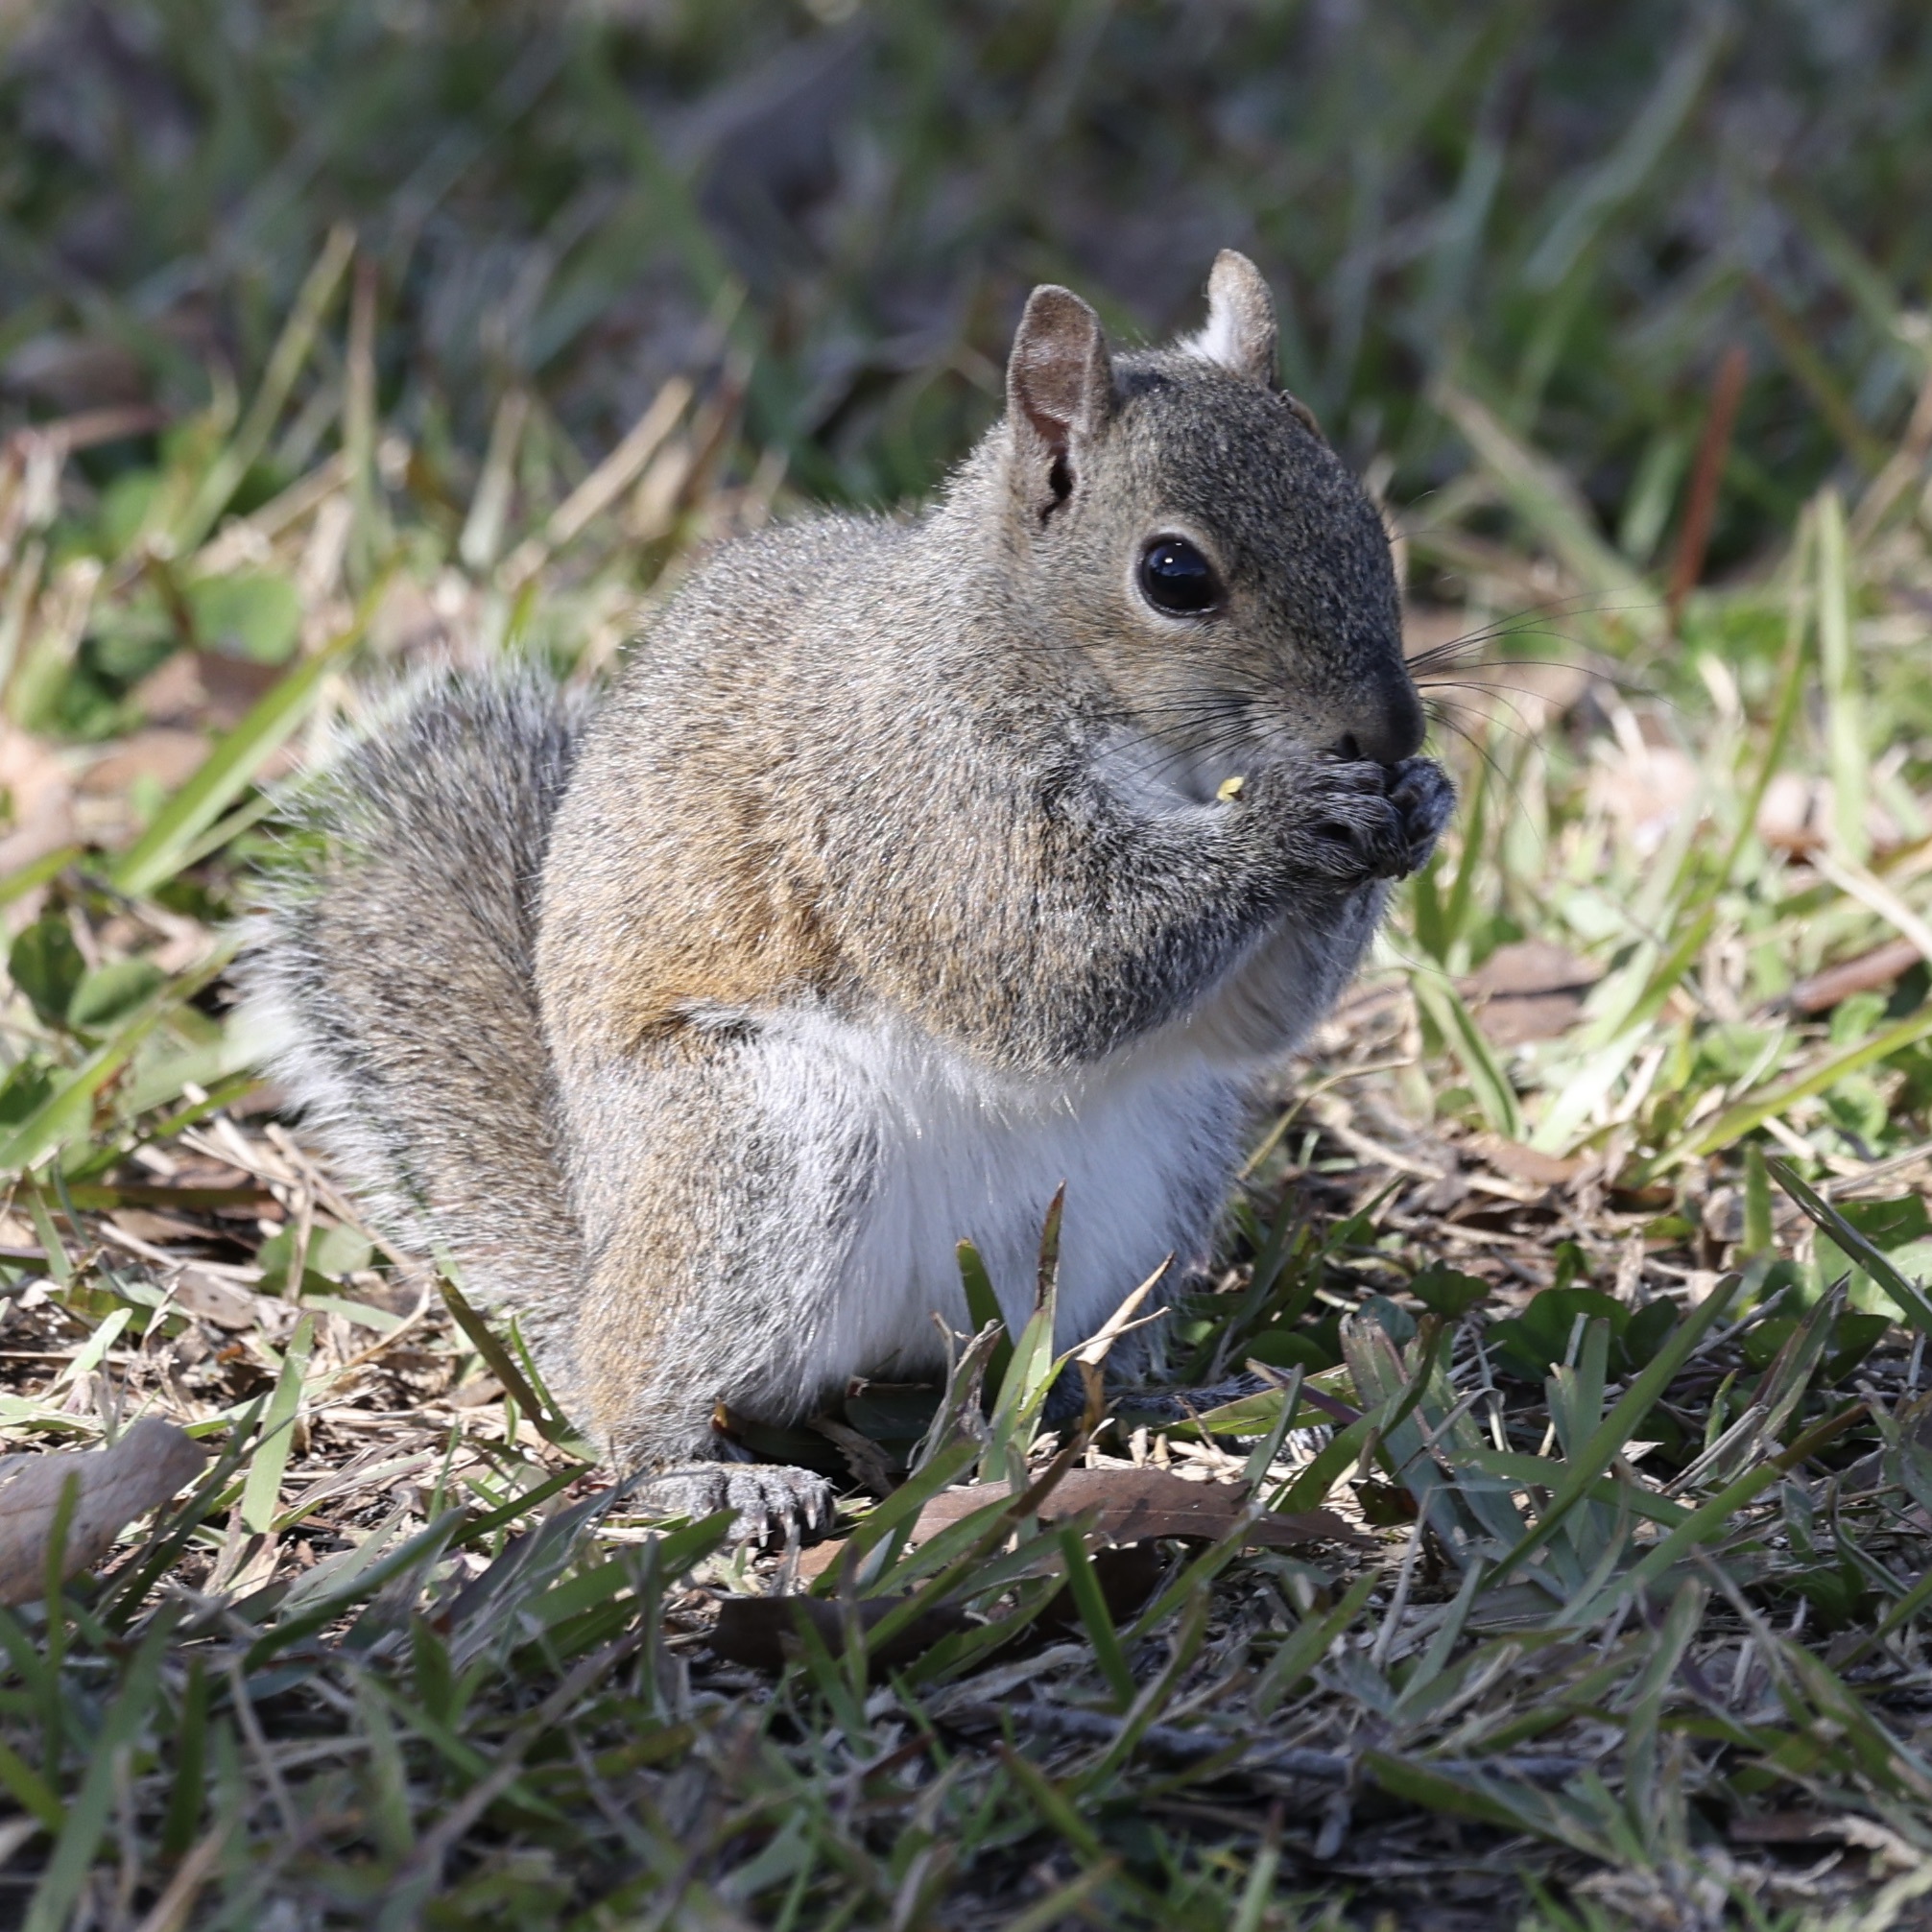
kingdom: Animalia
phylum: Chordata
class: Mammalia
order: Rodentia
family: Sciuridae
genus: Sciurus
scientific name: Sciurus carolinensis
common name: Eastern gray squirrel
